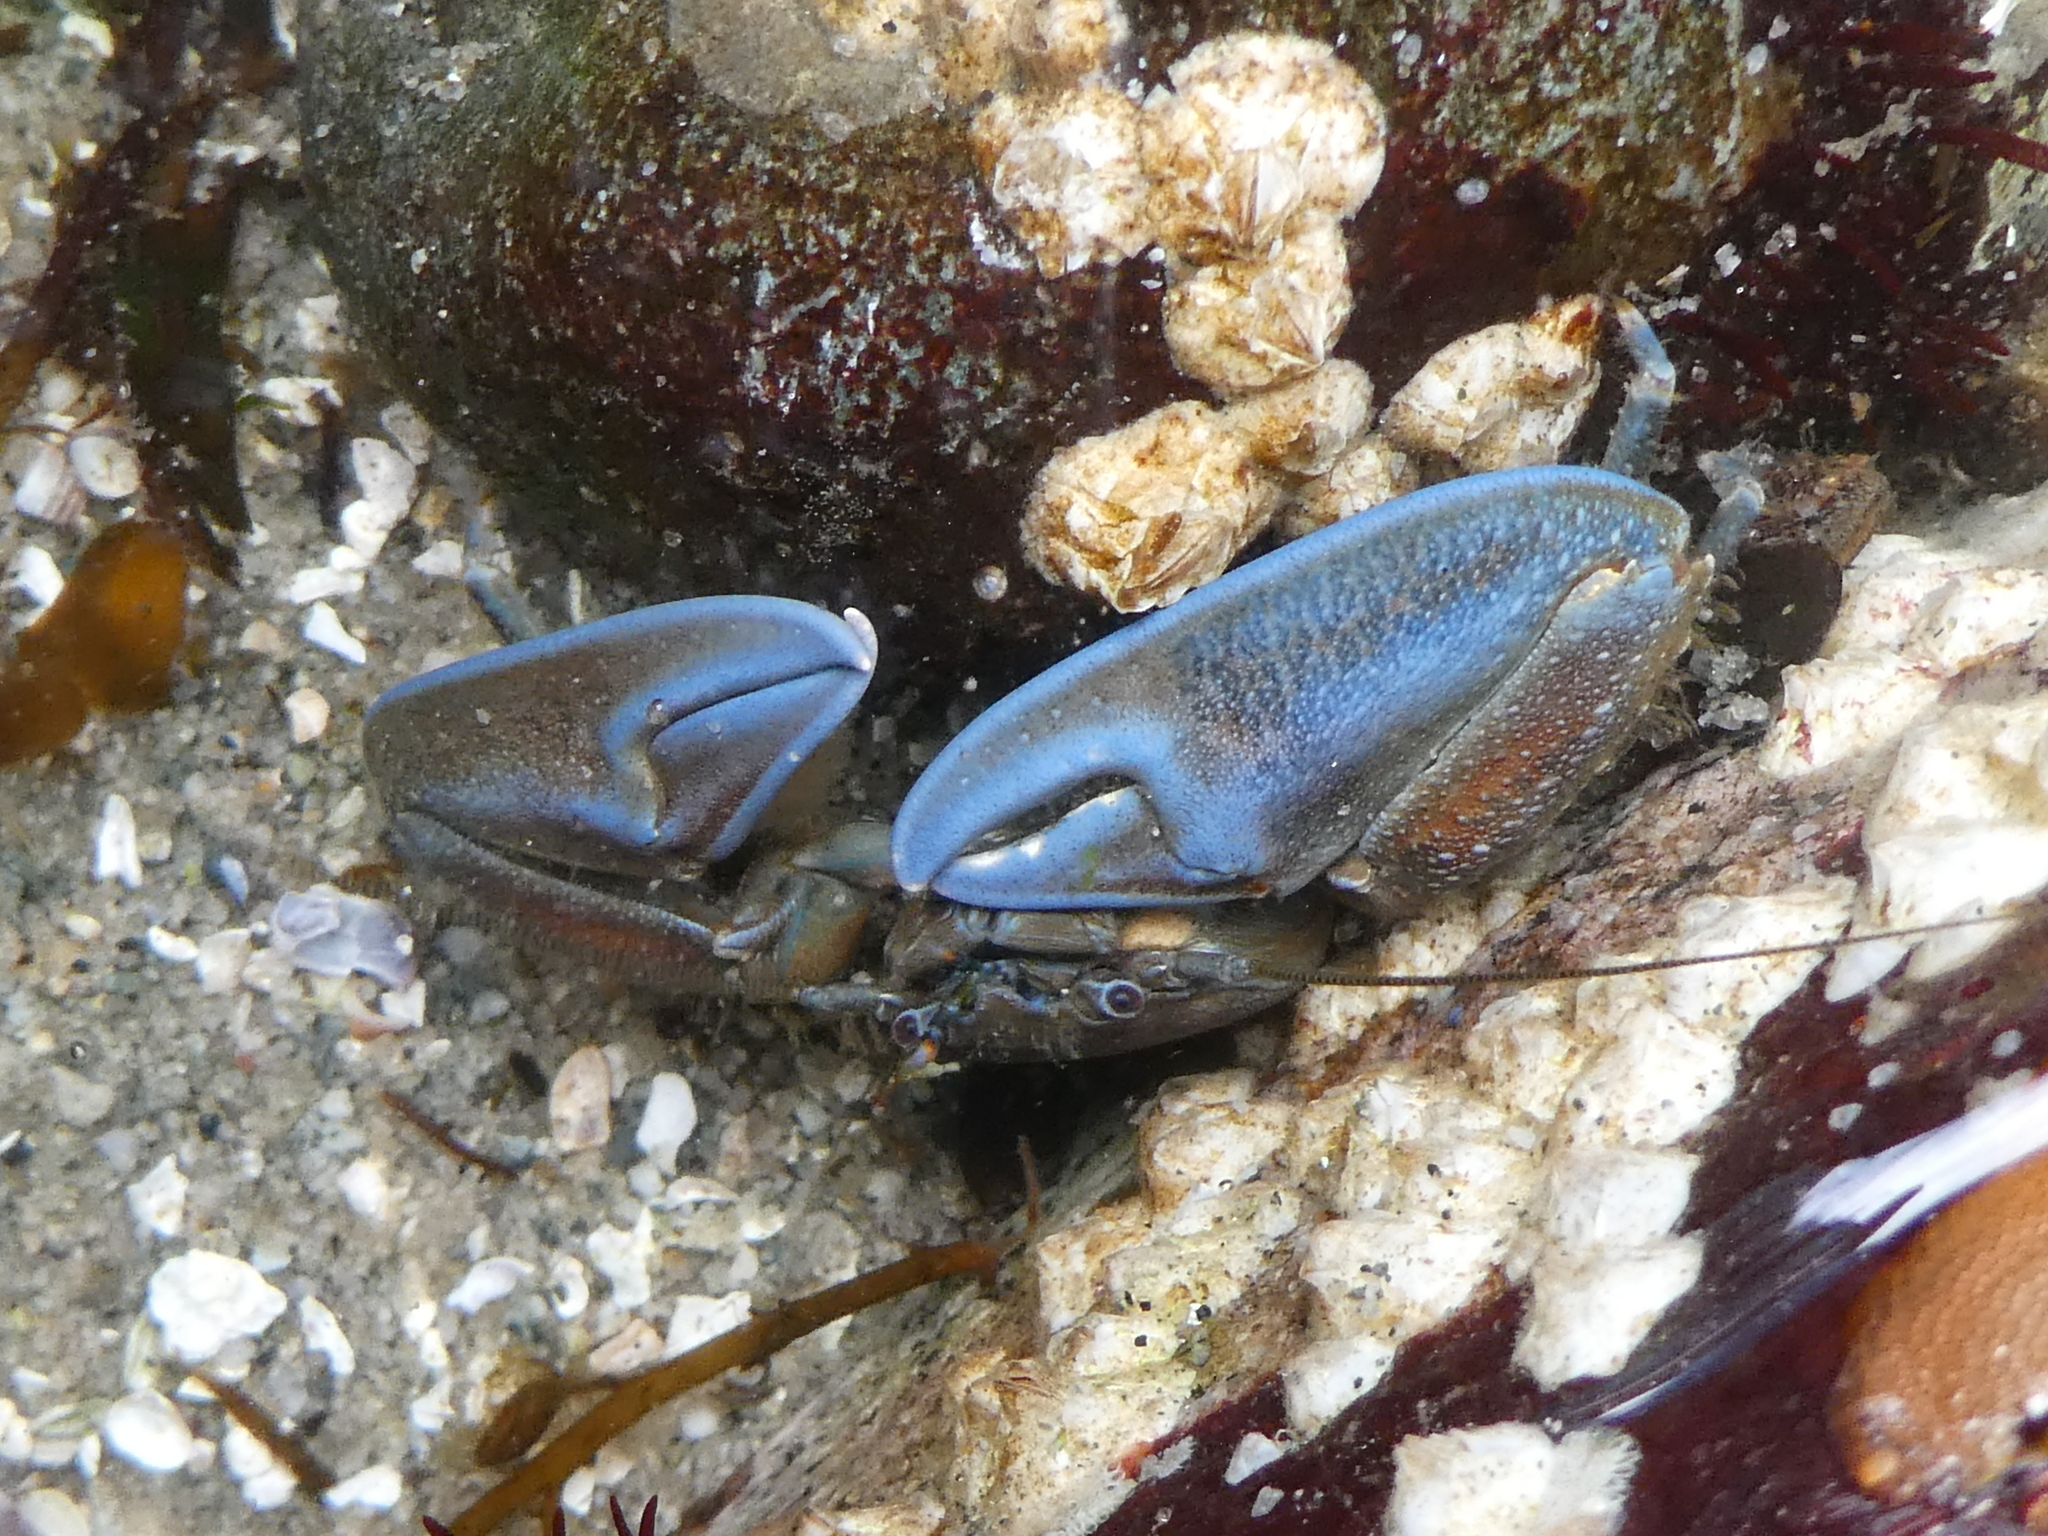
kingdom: Animalia
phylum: Arthropoda
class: Malacostraca
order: Decapoda
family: Porcellanidae
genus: Petrolisthes
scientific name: Petrolisthes eriomerus
